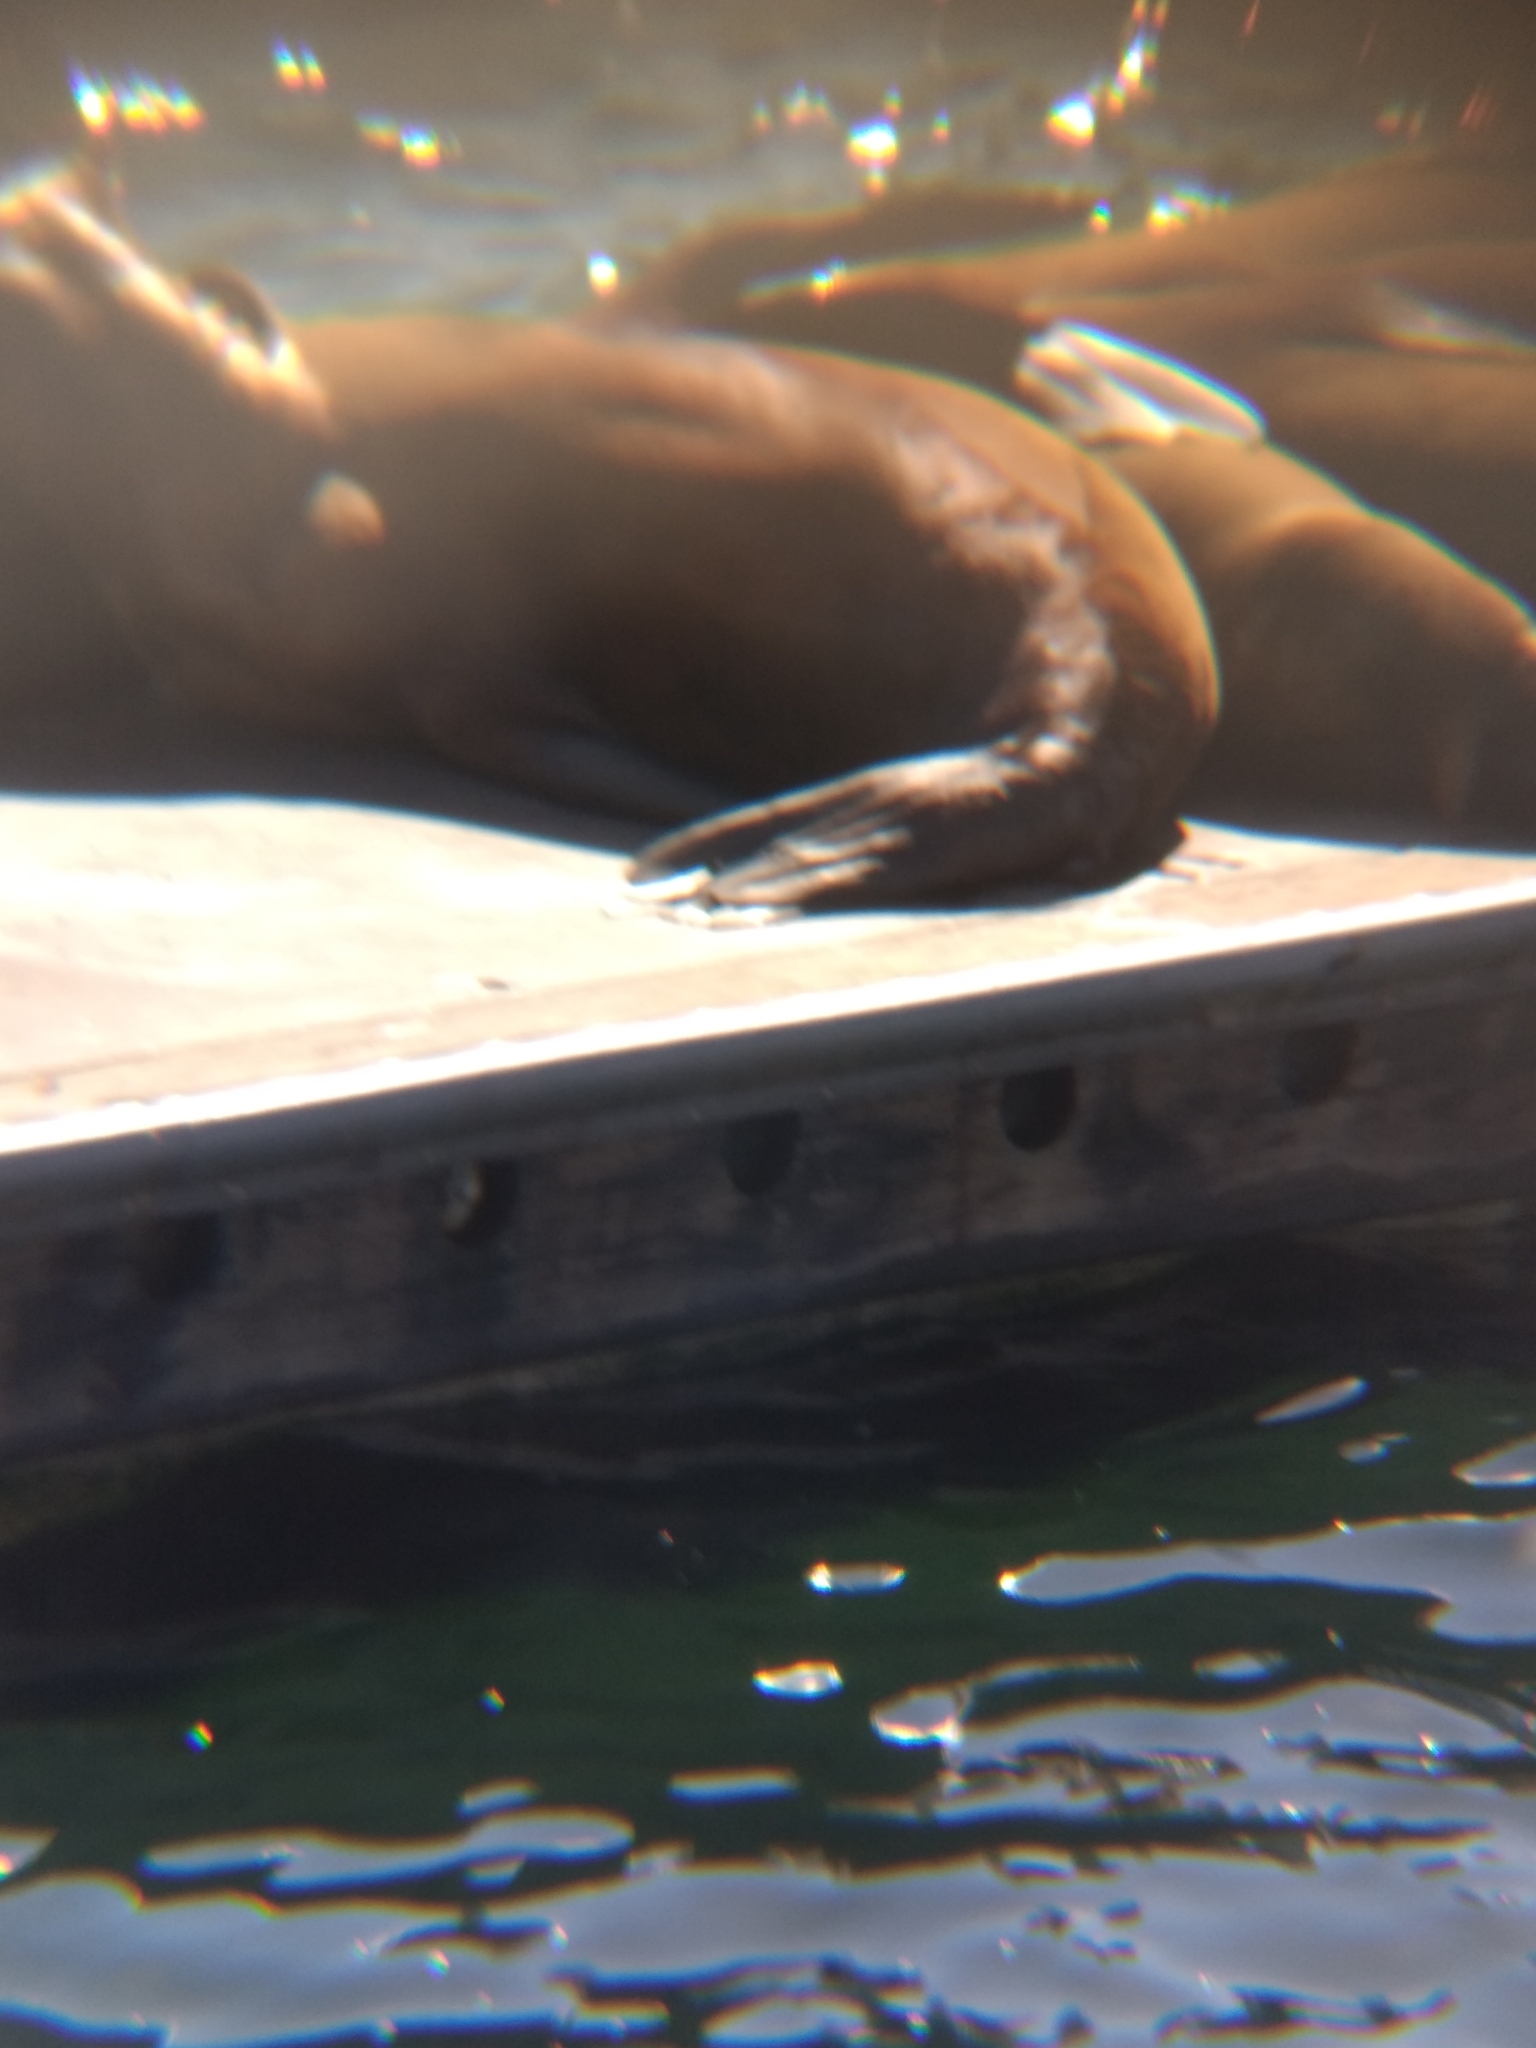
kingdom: Animalia
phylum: Chordata
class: Mammalia
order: Carnivora
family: Otariidae
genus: Zalophus
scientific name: Zalophus californianus
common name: California sea lion
